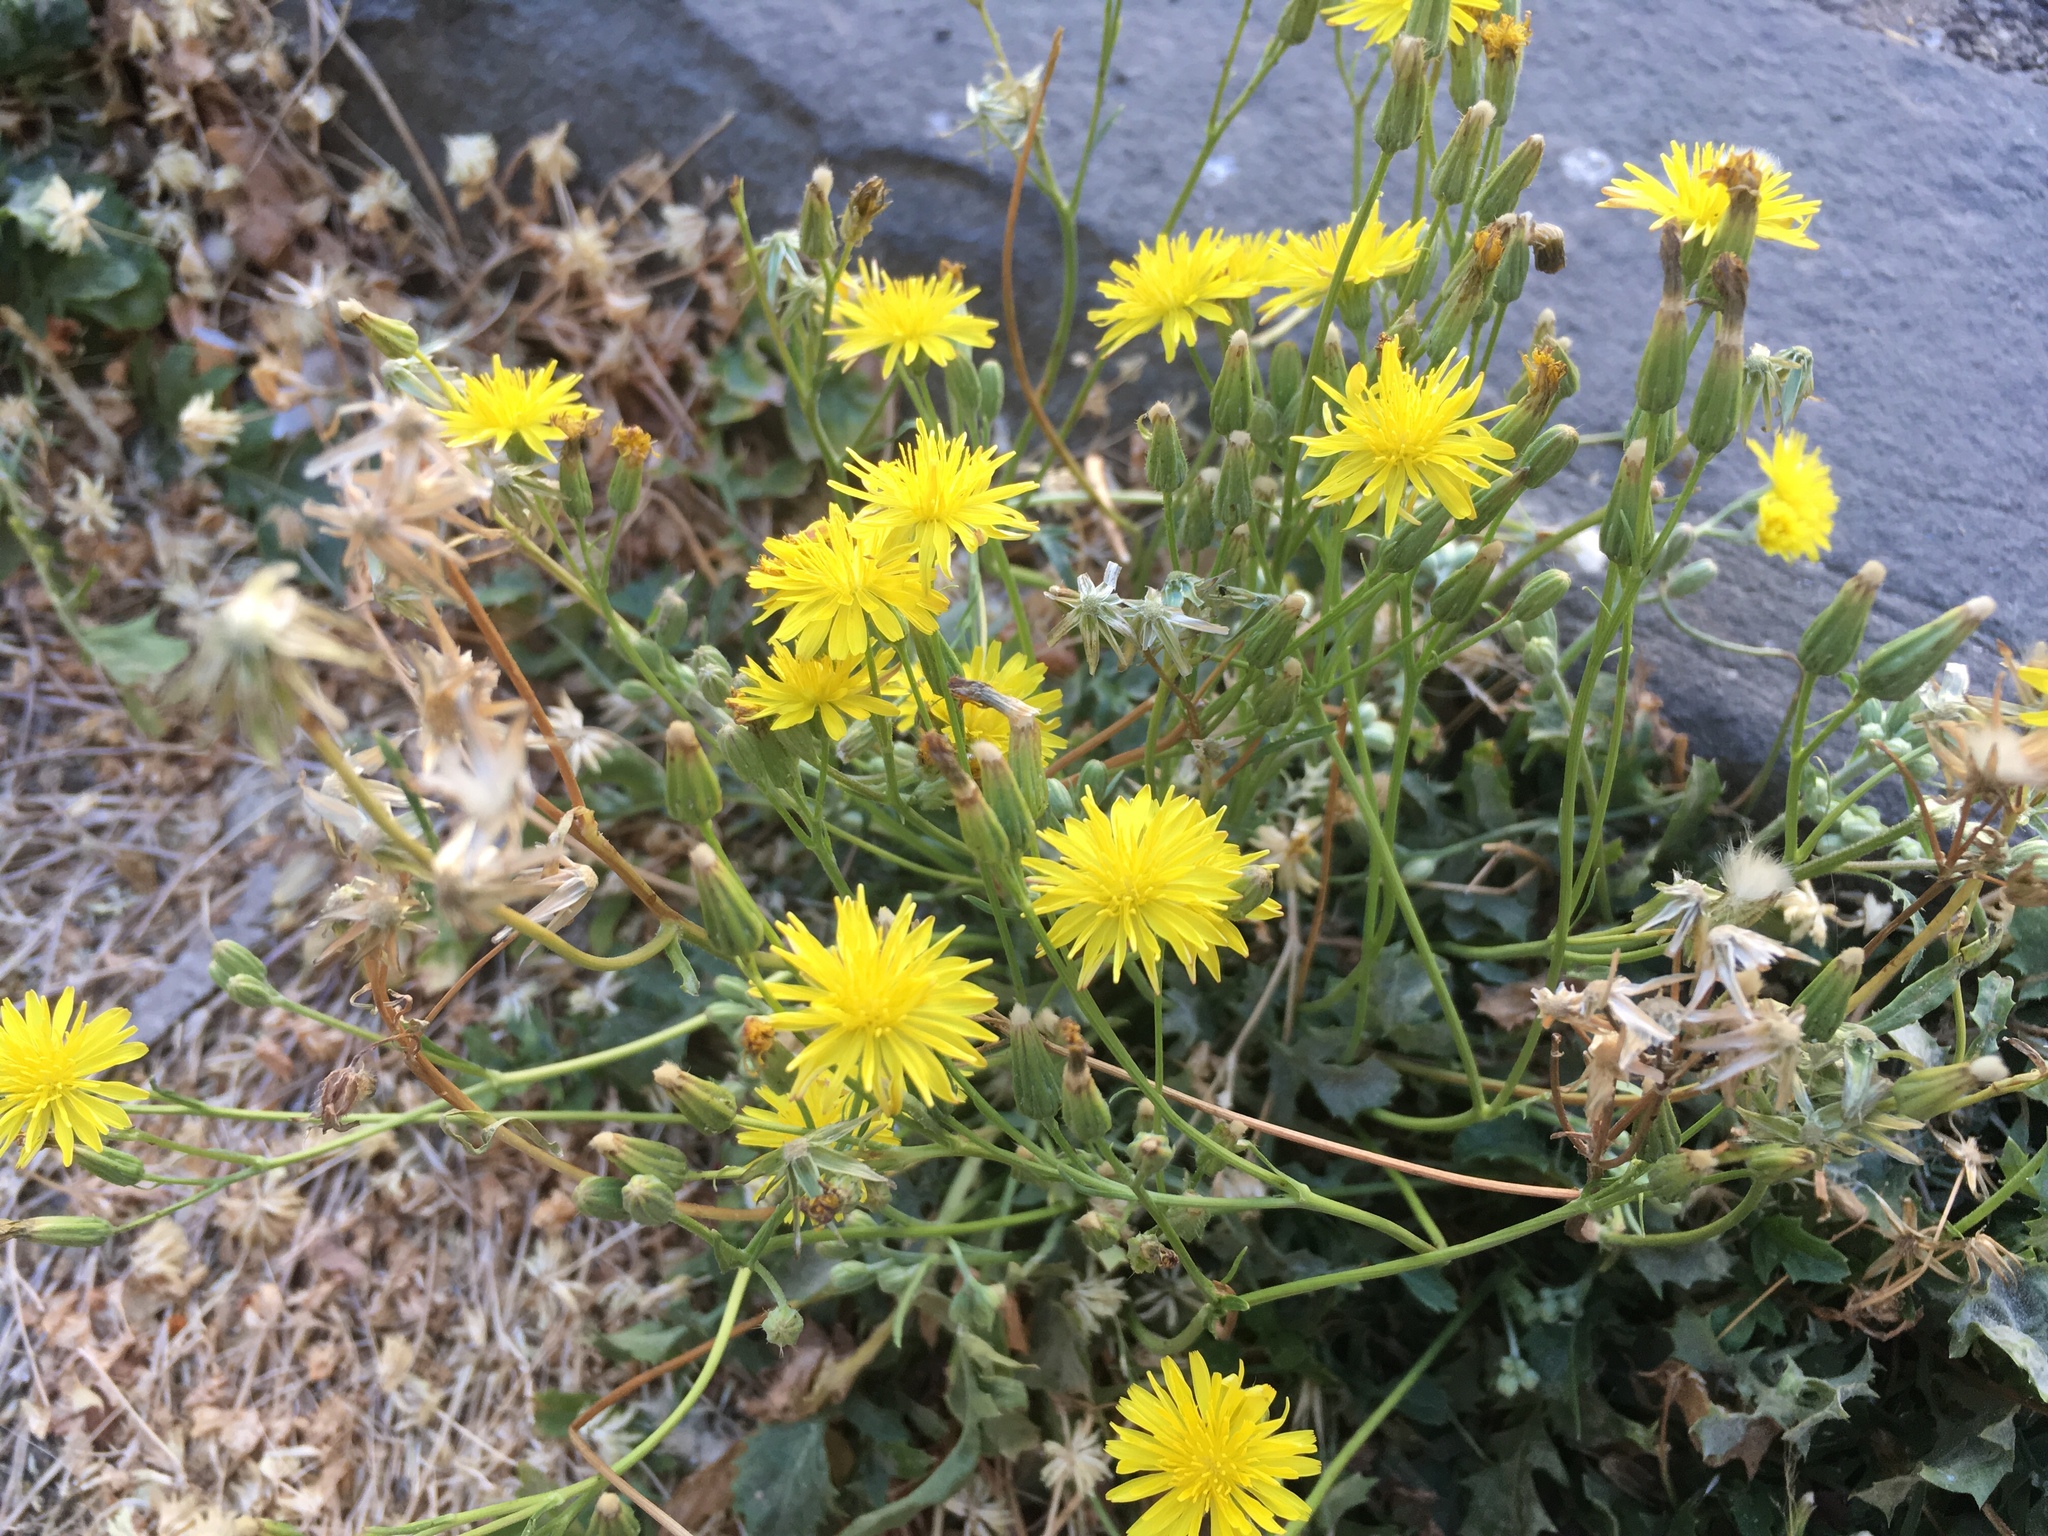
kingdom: Plantae
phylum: Tracheophyta
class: Magnoliopsida
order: Asterales
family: Asteraceae
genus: Crepis
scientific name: Crepis bursifolia
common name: Italian hawksbeard
